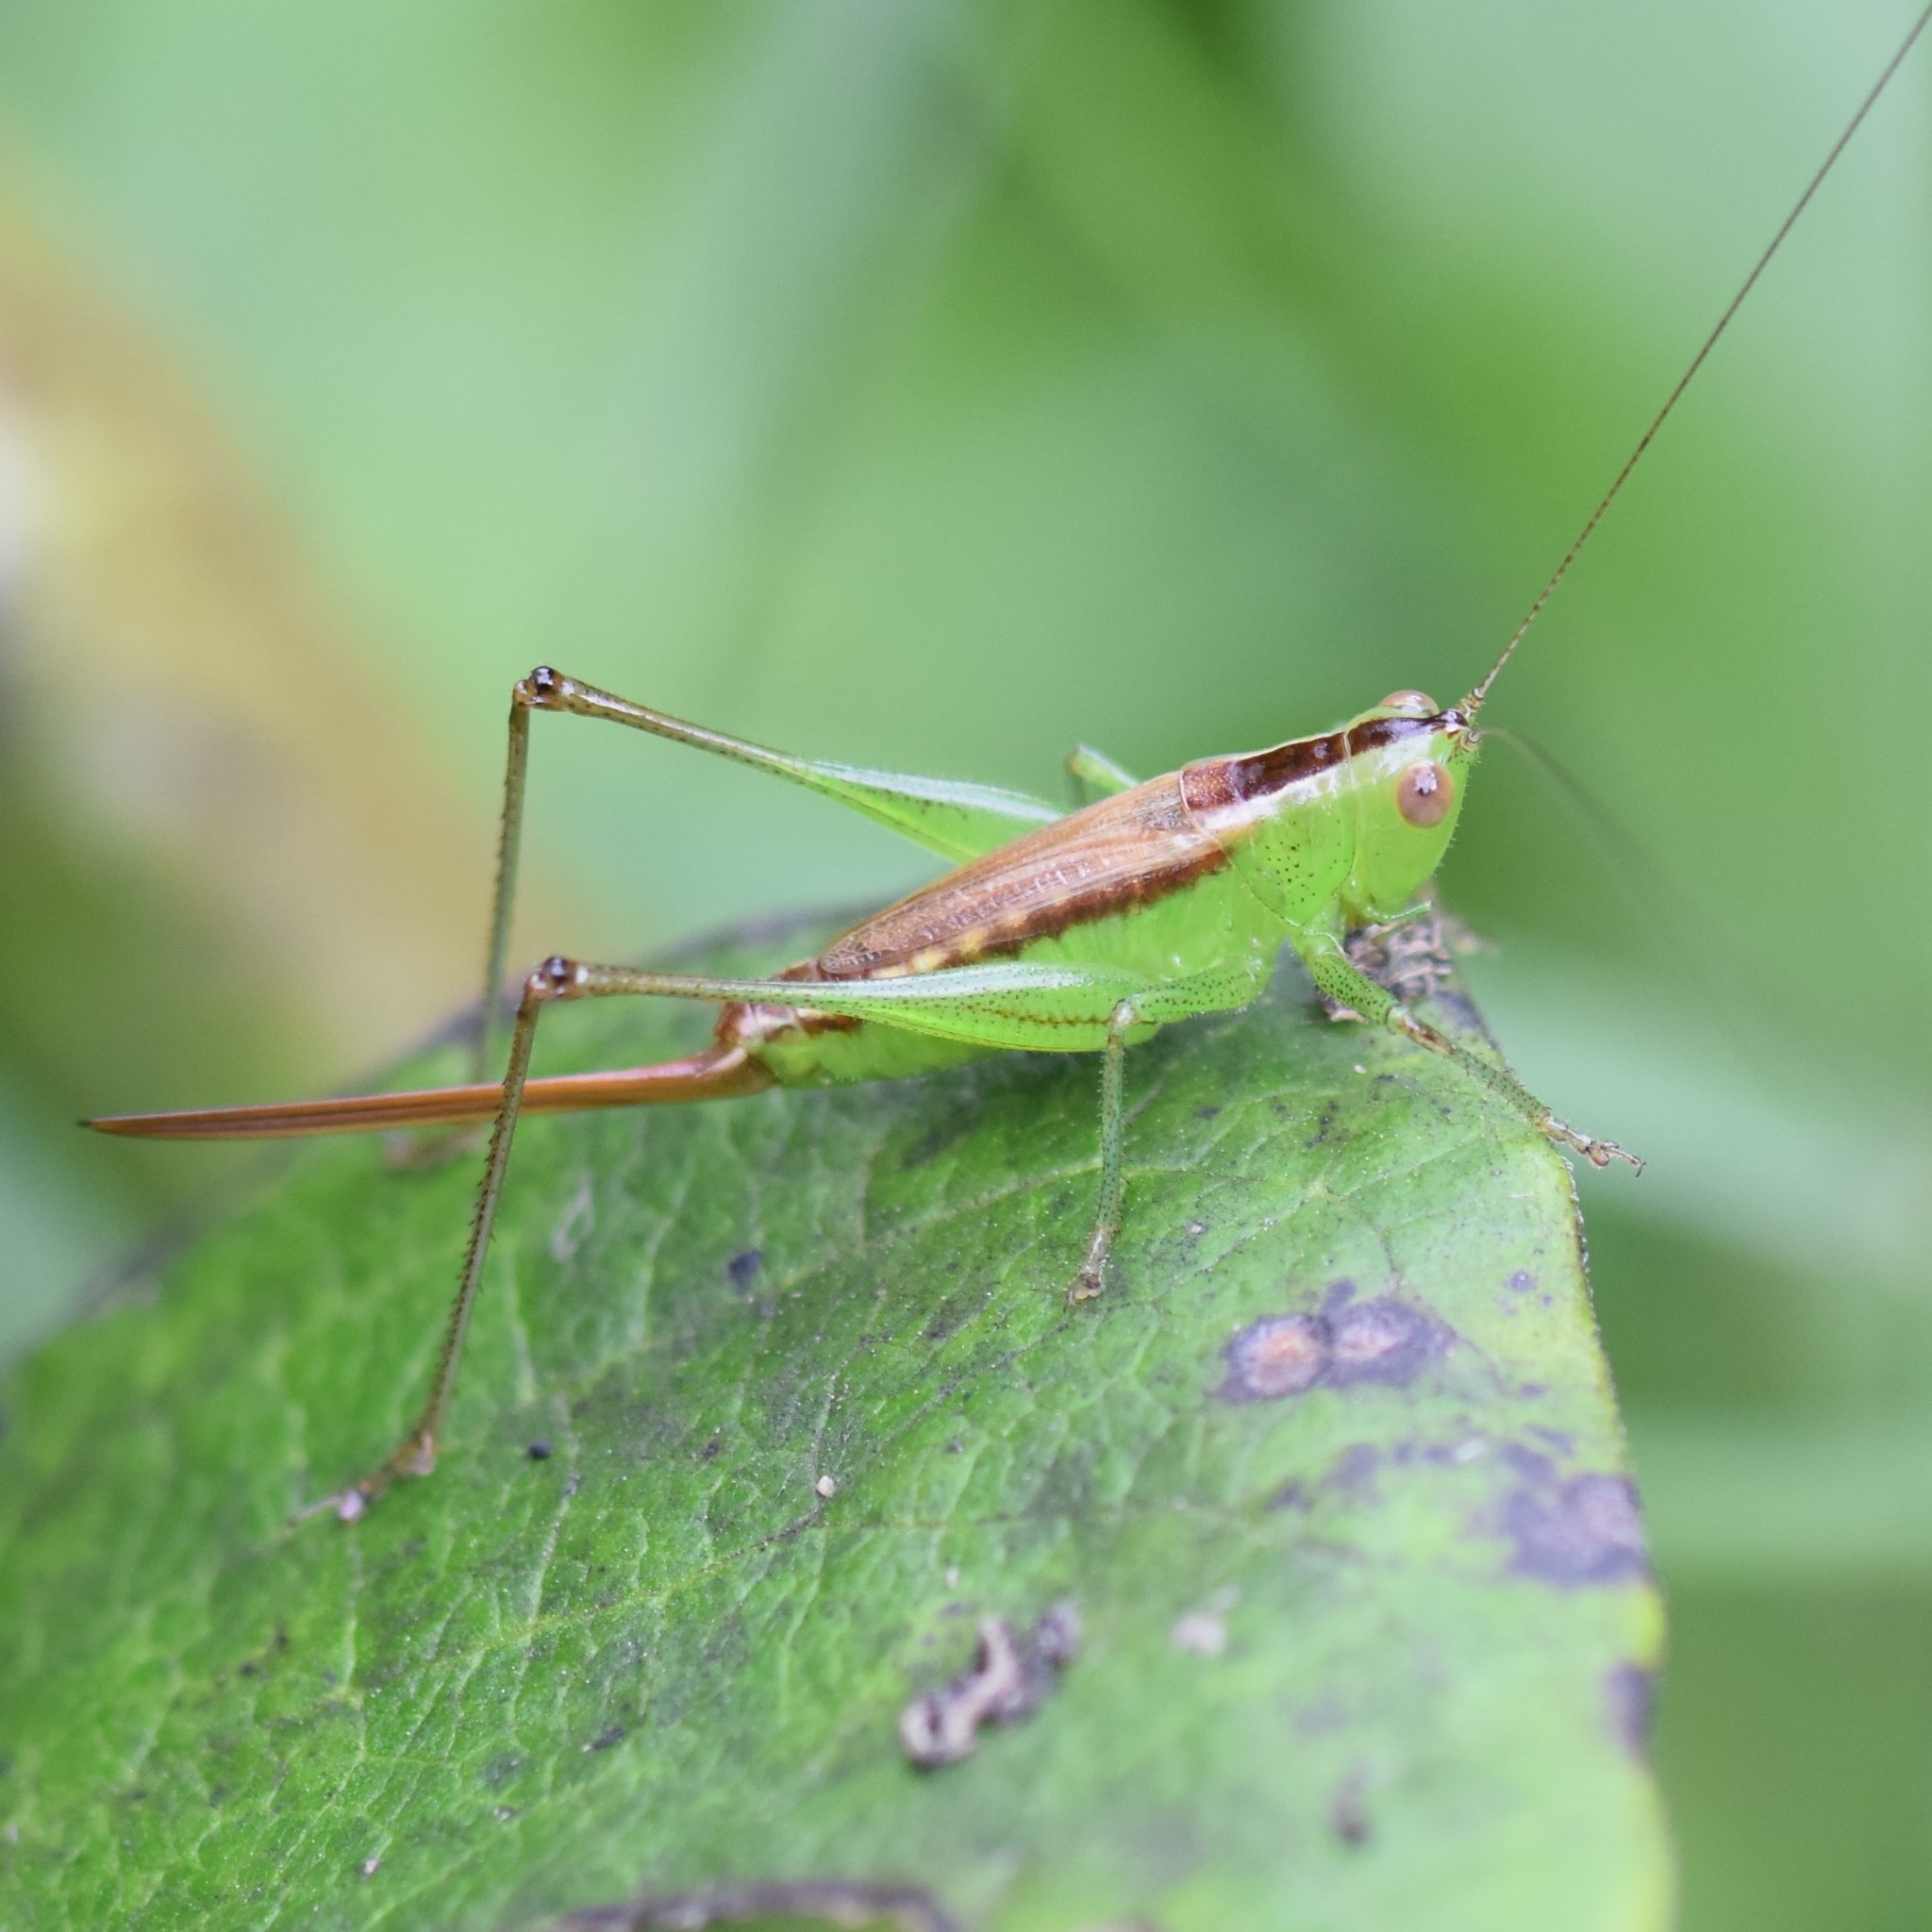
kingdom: Animalia
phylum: Arthropoda
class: Insecta
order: Orthoptera
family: Tettigoniidae
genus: Conocephalus
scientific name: Conocephalus brevipennis
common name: Short-winged meadow katydid
